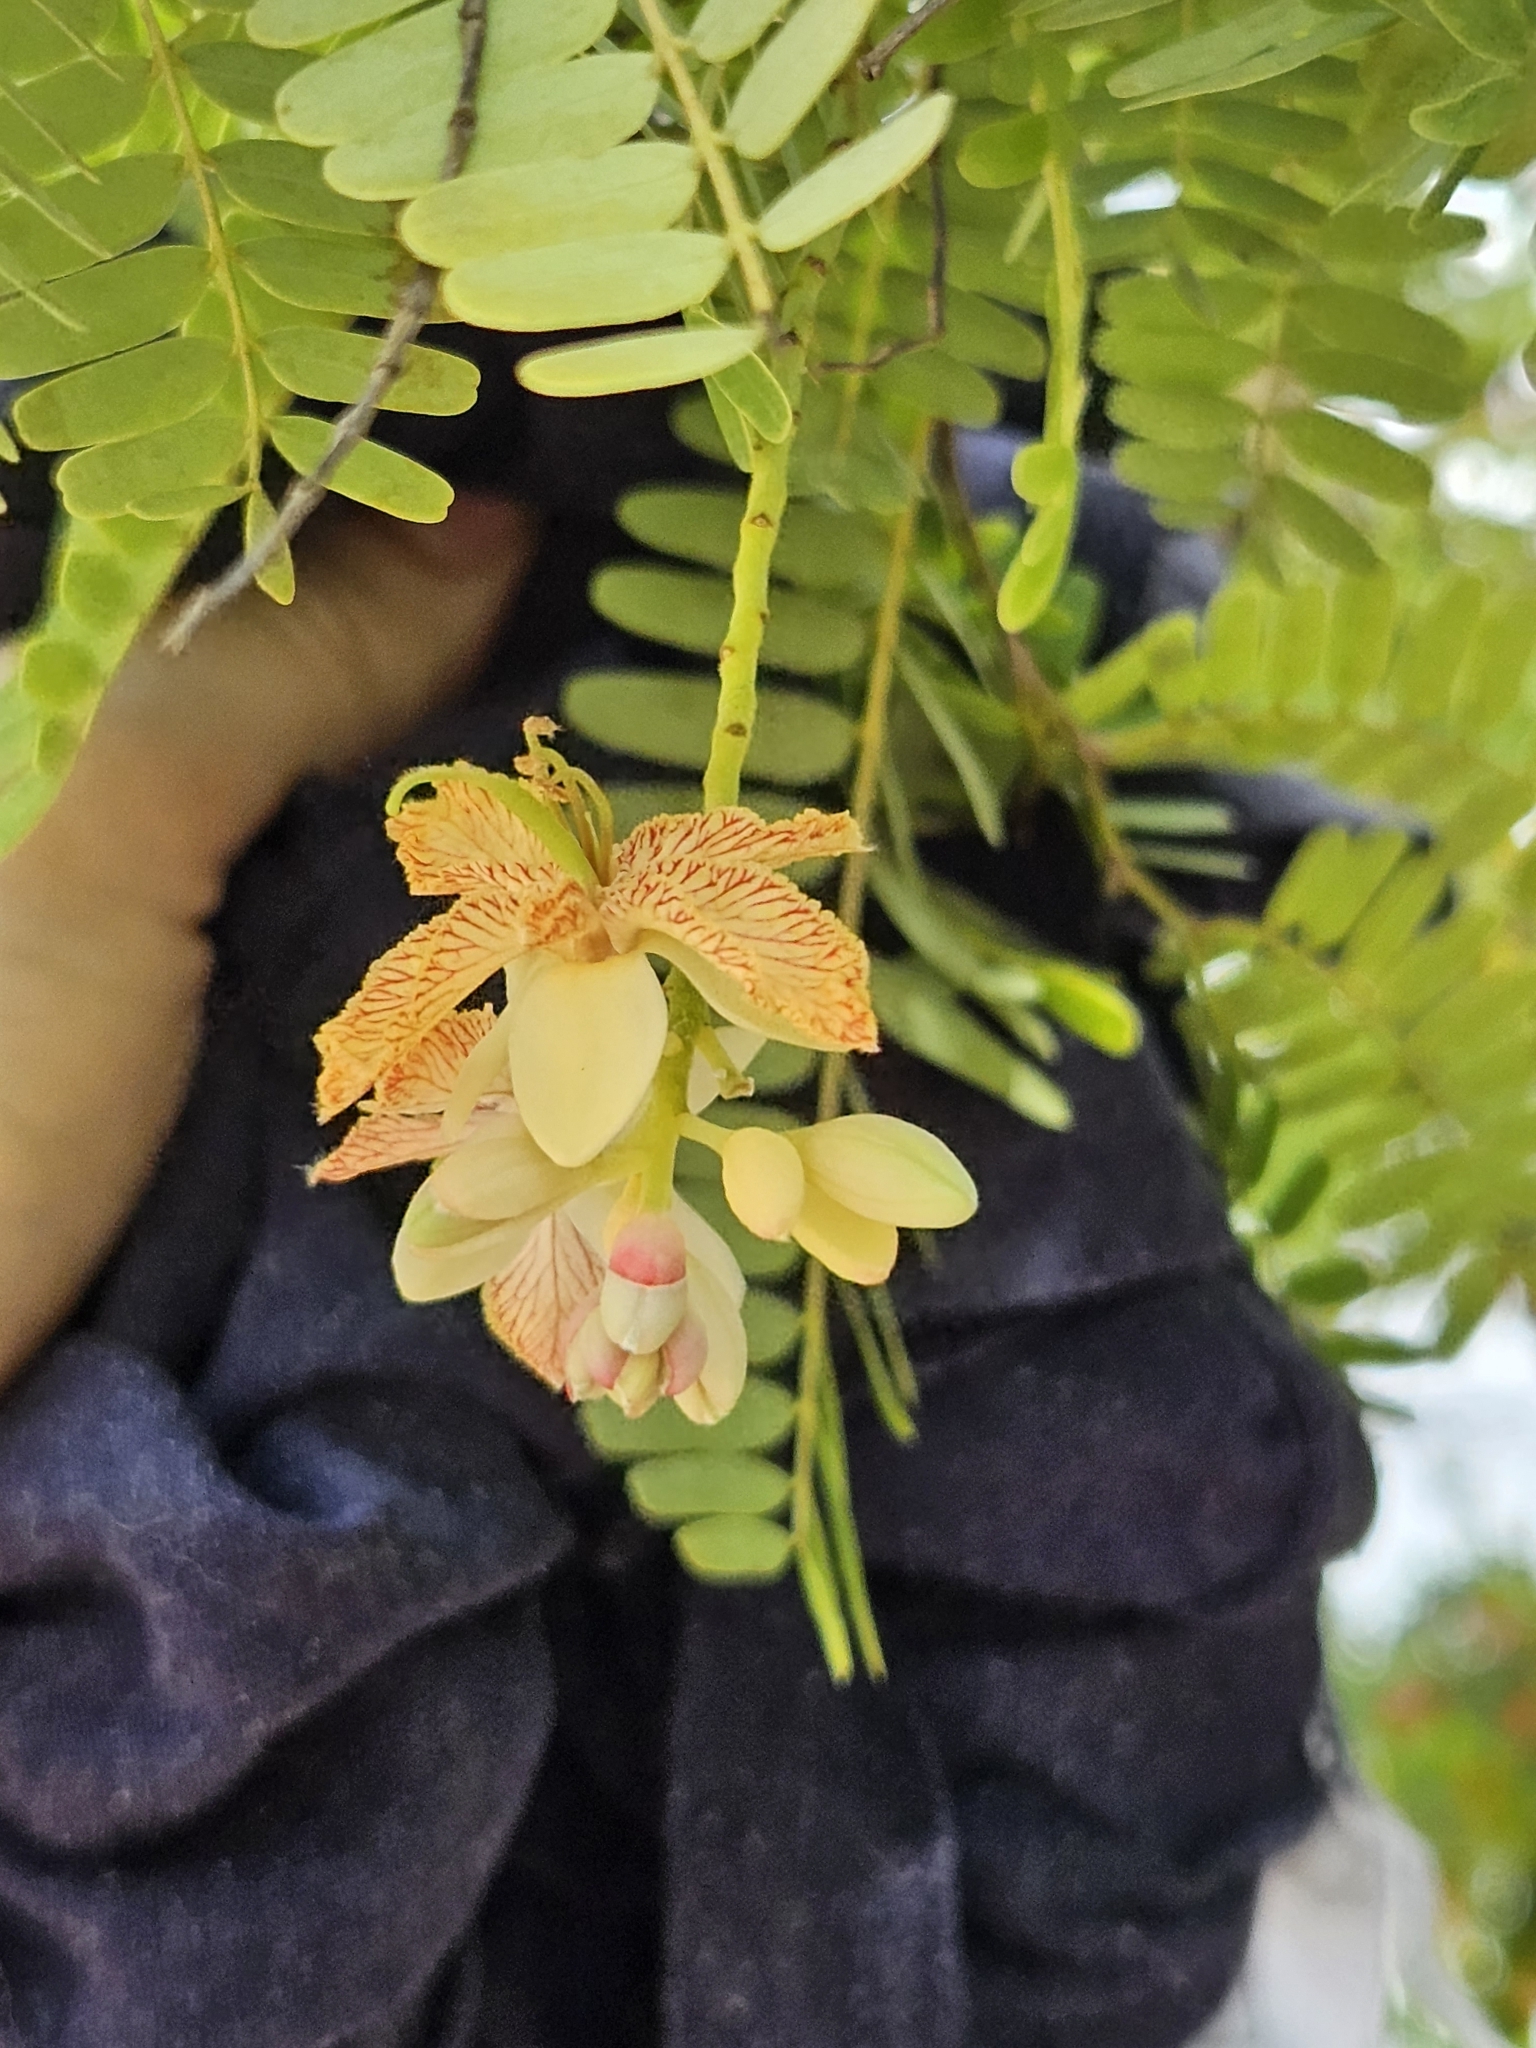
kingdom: Plantae
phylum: Tracheophyta
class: Magnoliopsida
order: Fabales
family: Fabaceae
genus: Tamarindus
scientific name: Tamarindus indica
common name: Tamarind
